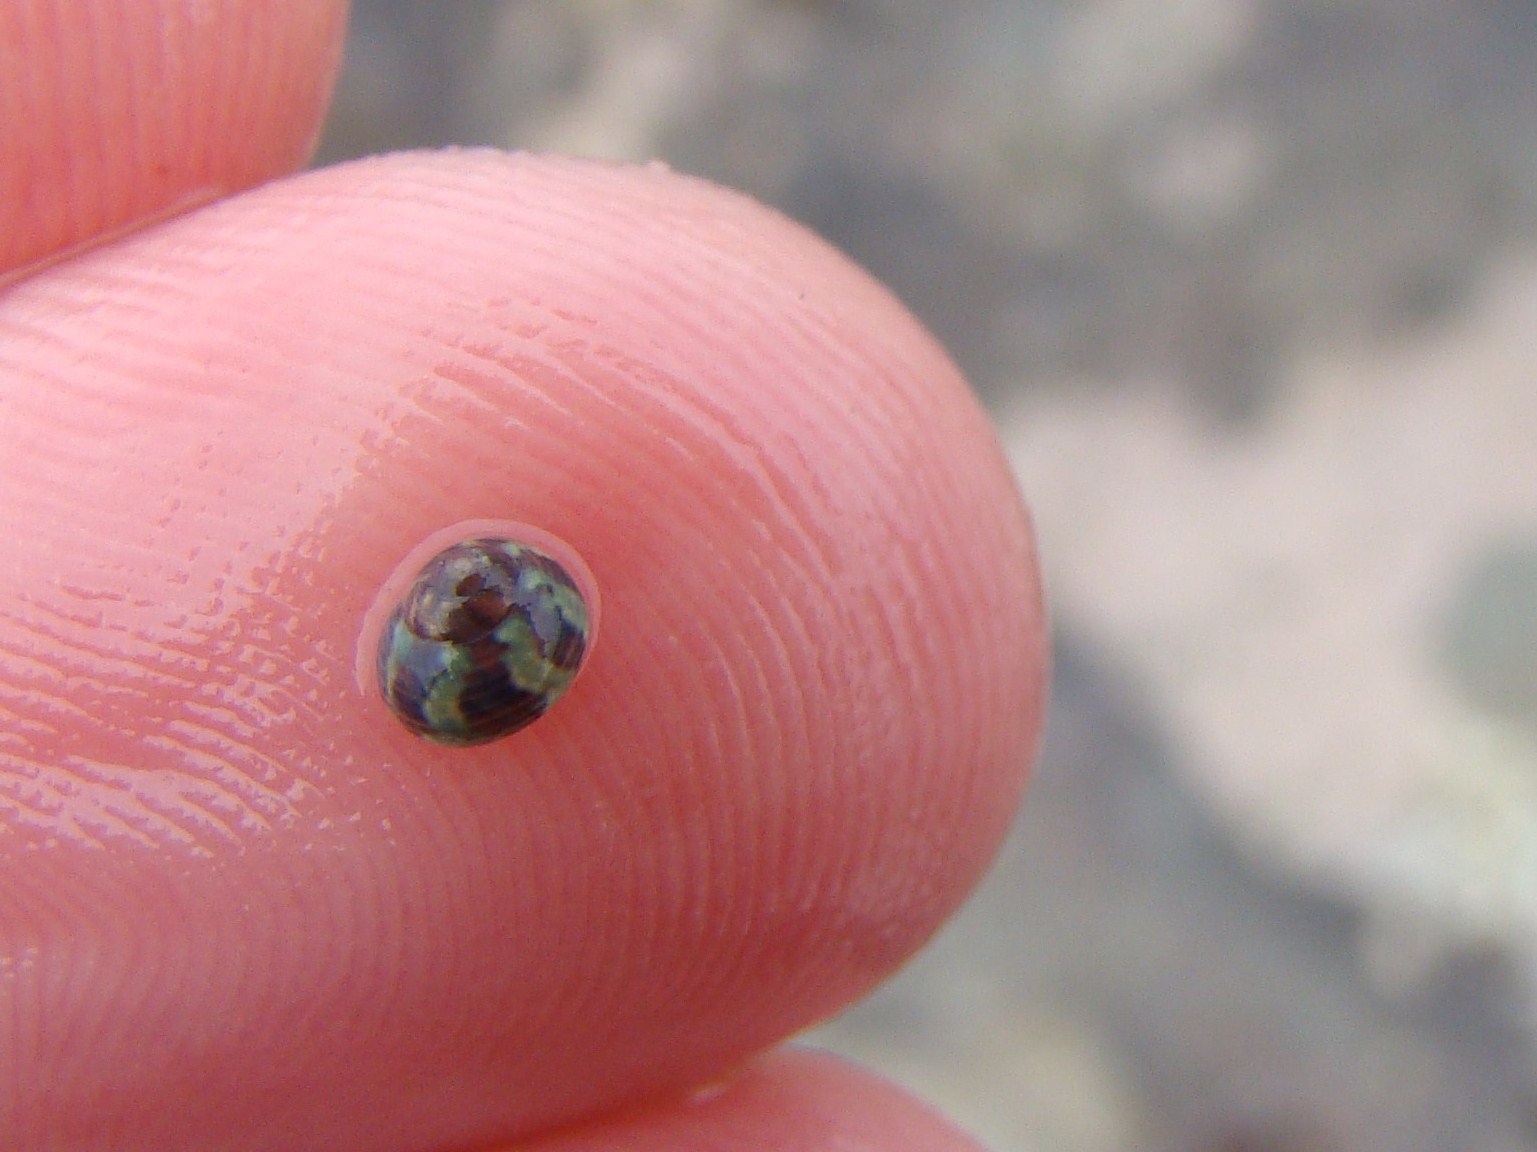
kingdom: Animalia
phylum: Mollusca
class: Gastropoda
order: Trochida
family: Trochidae
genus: Micrelenchus
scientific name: Micrelenchus tessellatus
